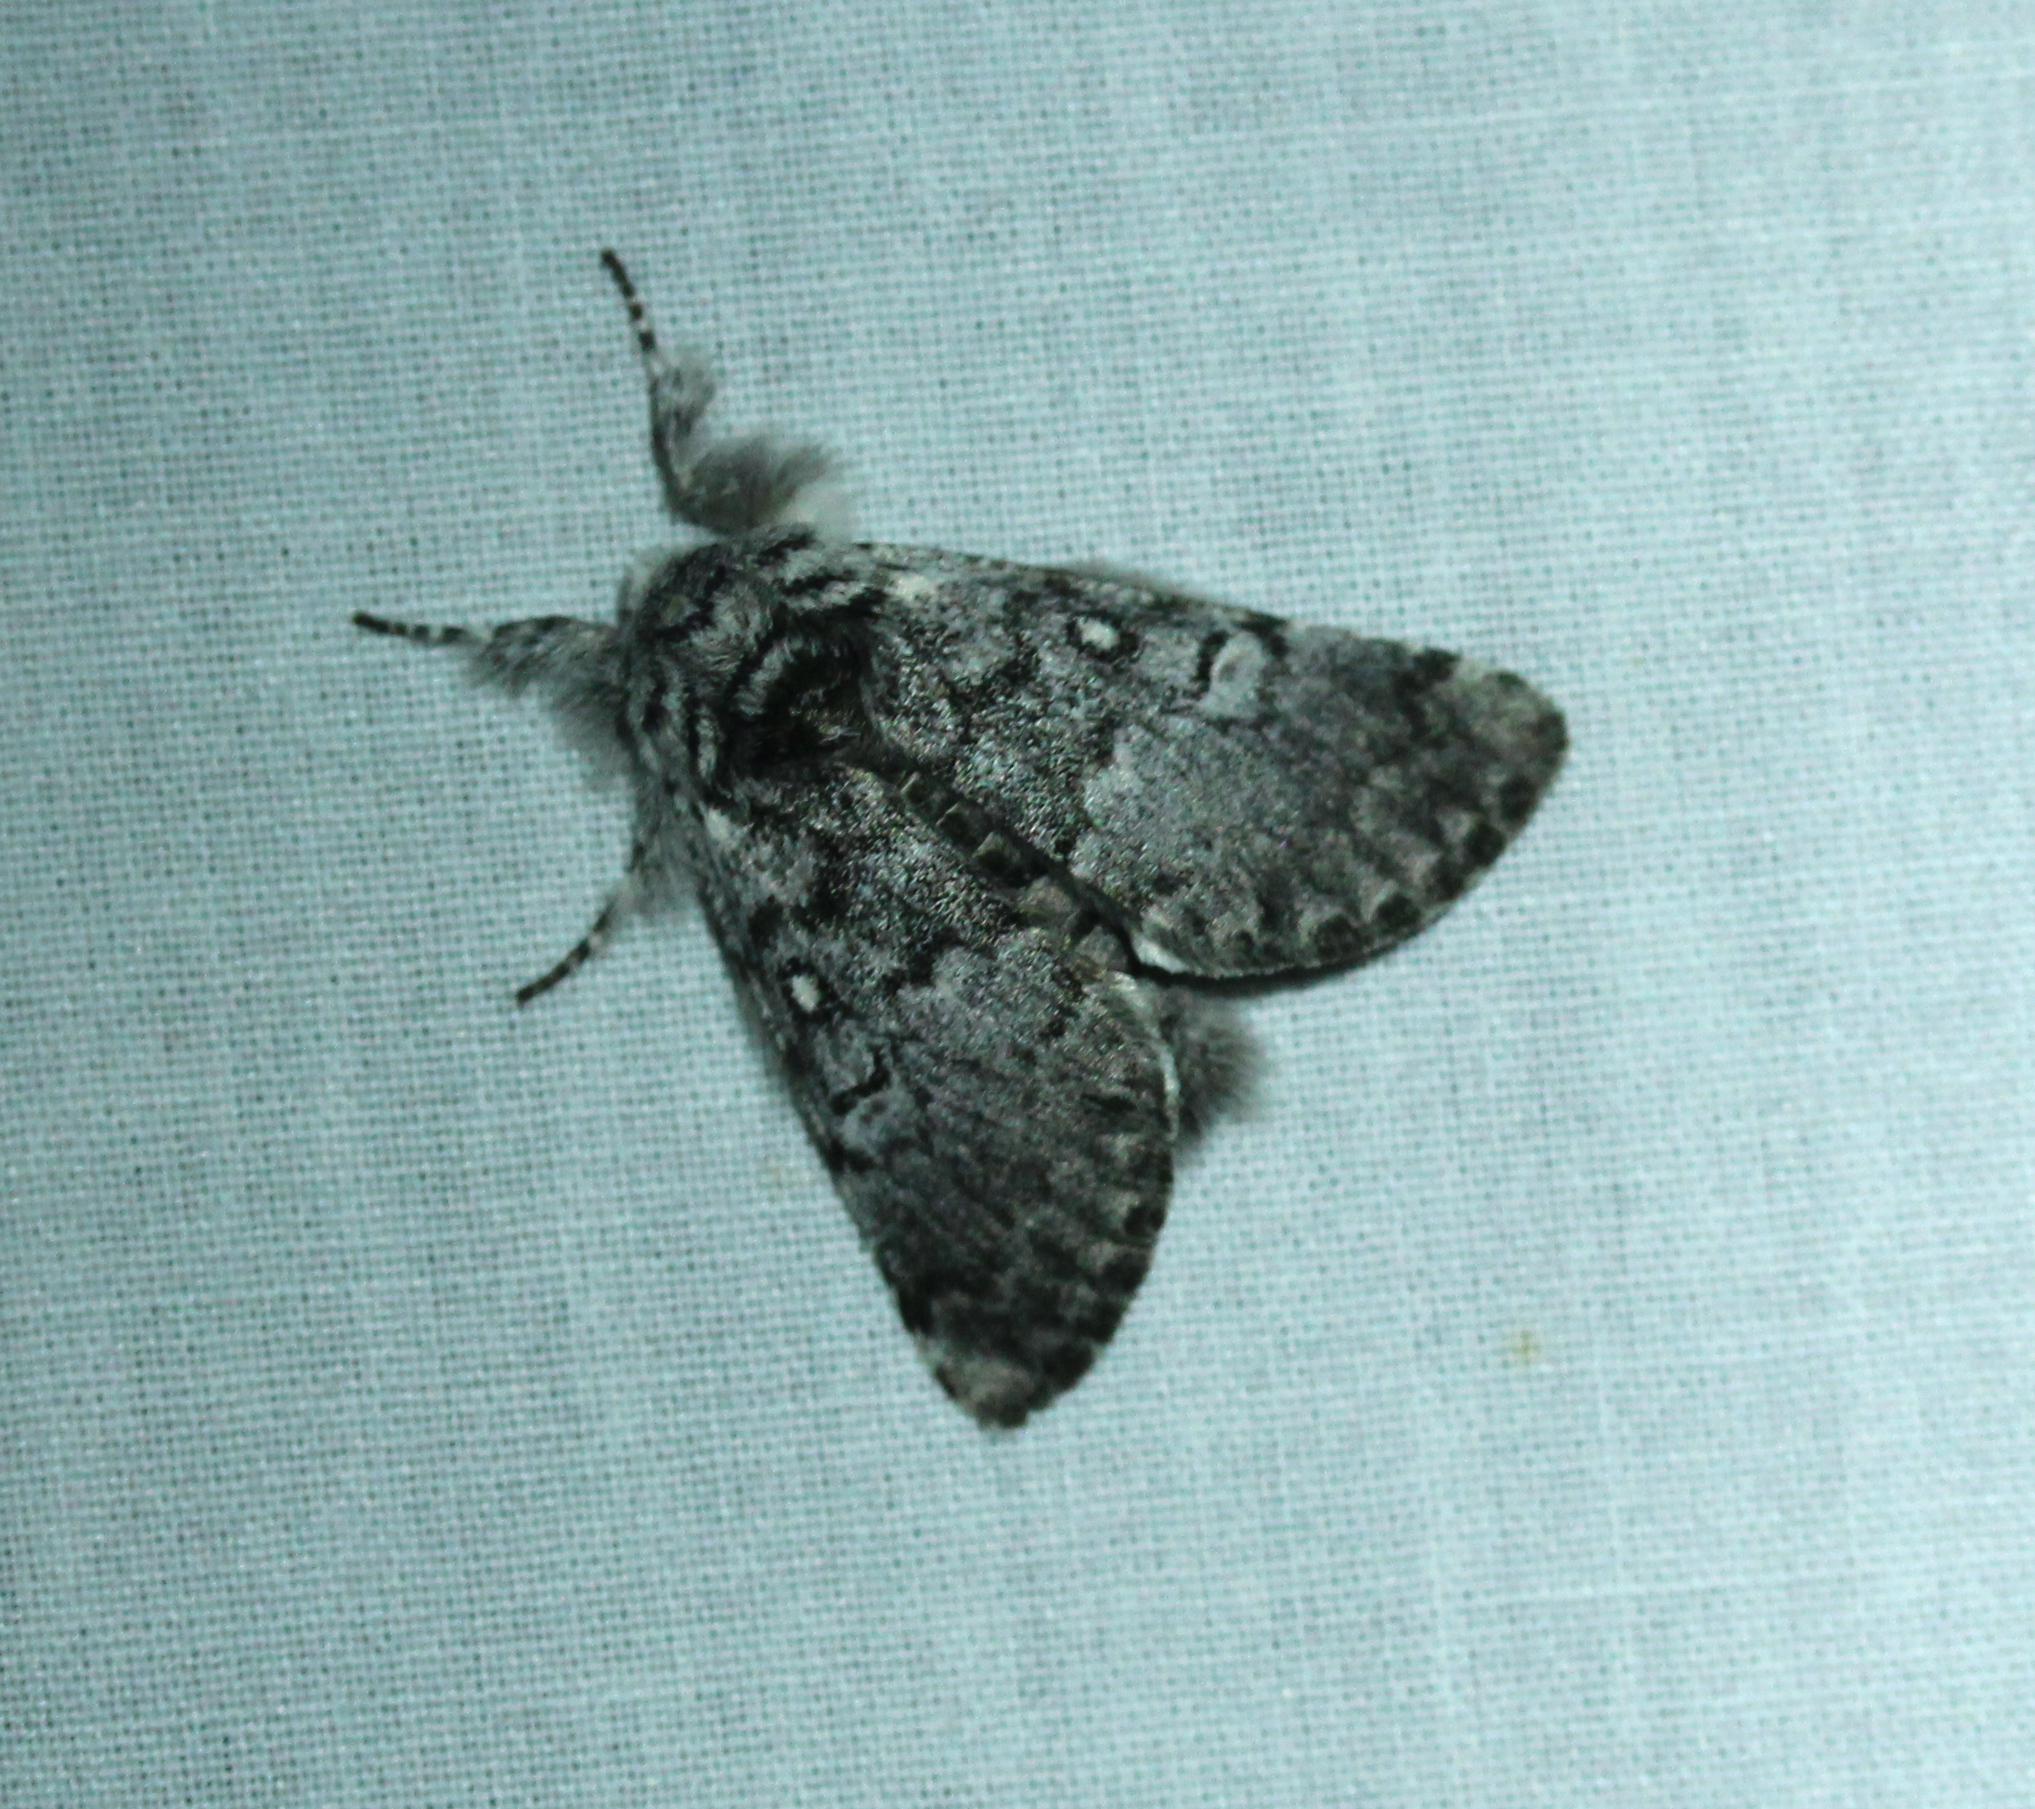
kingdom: Animalia
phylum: Arthropoda
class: Insecta
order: Lepidoptera
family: Noctuidae
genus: Colocasia
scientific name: Colocasia propinquilinea
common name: Close-banded demas
